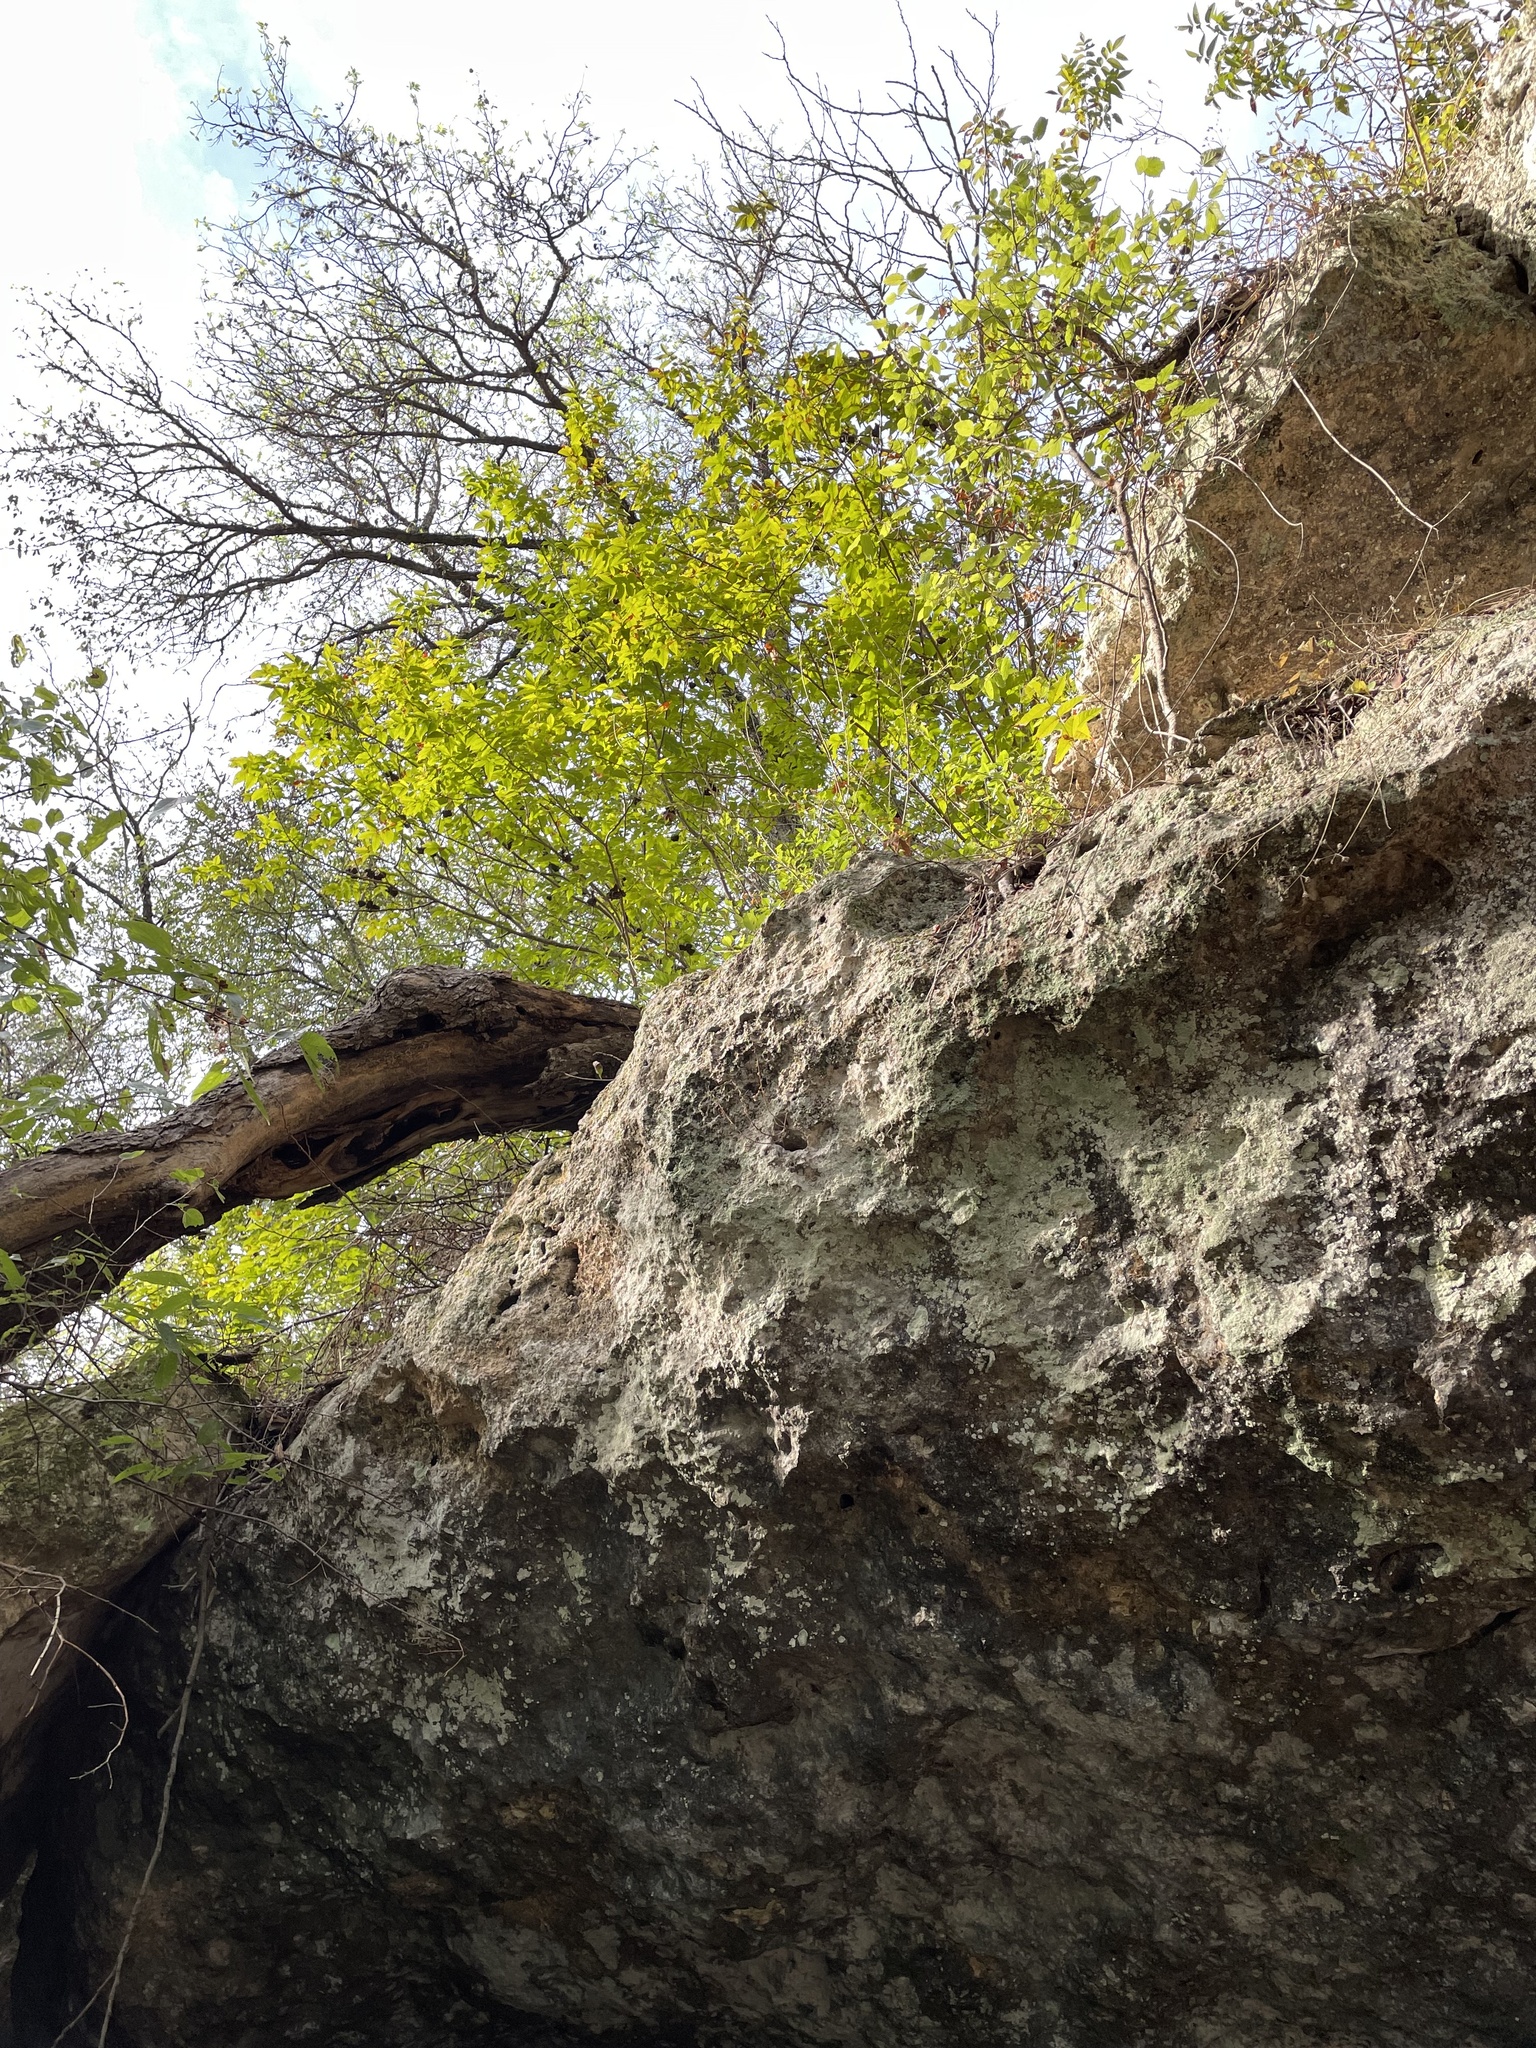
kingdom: Plantae
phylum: Tracheophyta
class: Magnoliopsida
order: Sapindales
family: Sapindaceae
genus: Ungnadia
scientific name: Ungnadia speciosa
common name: Texas-buckeye
